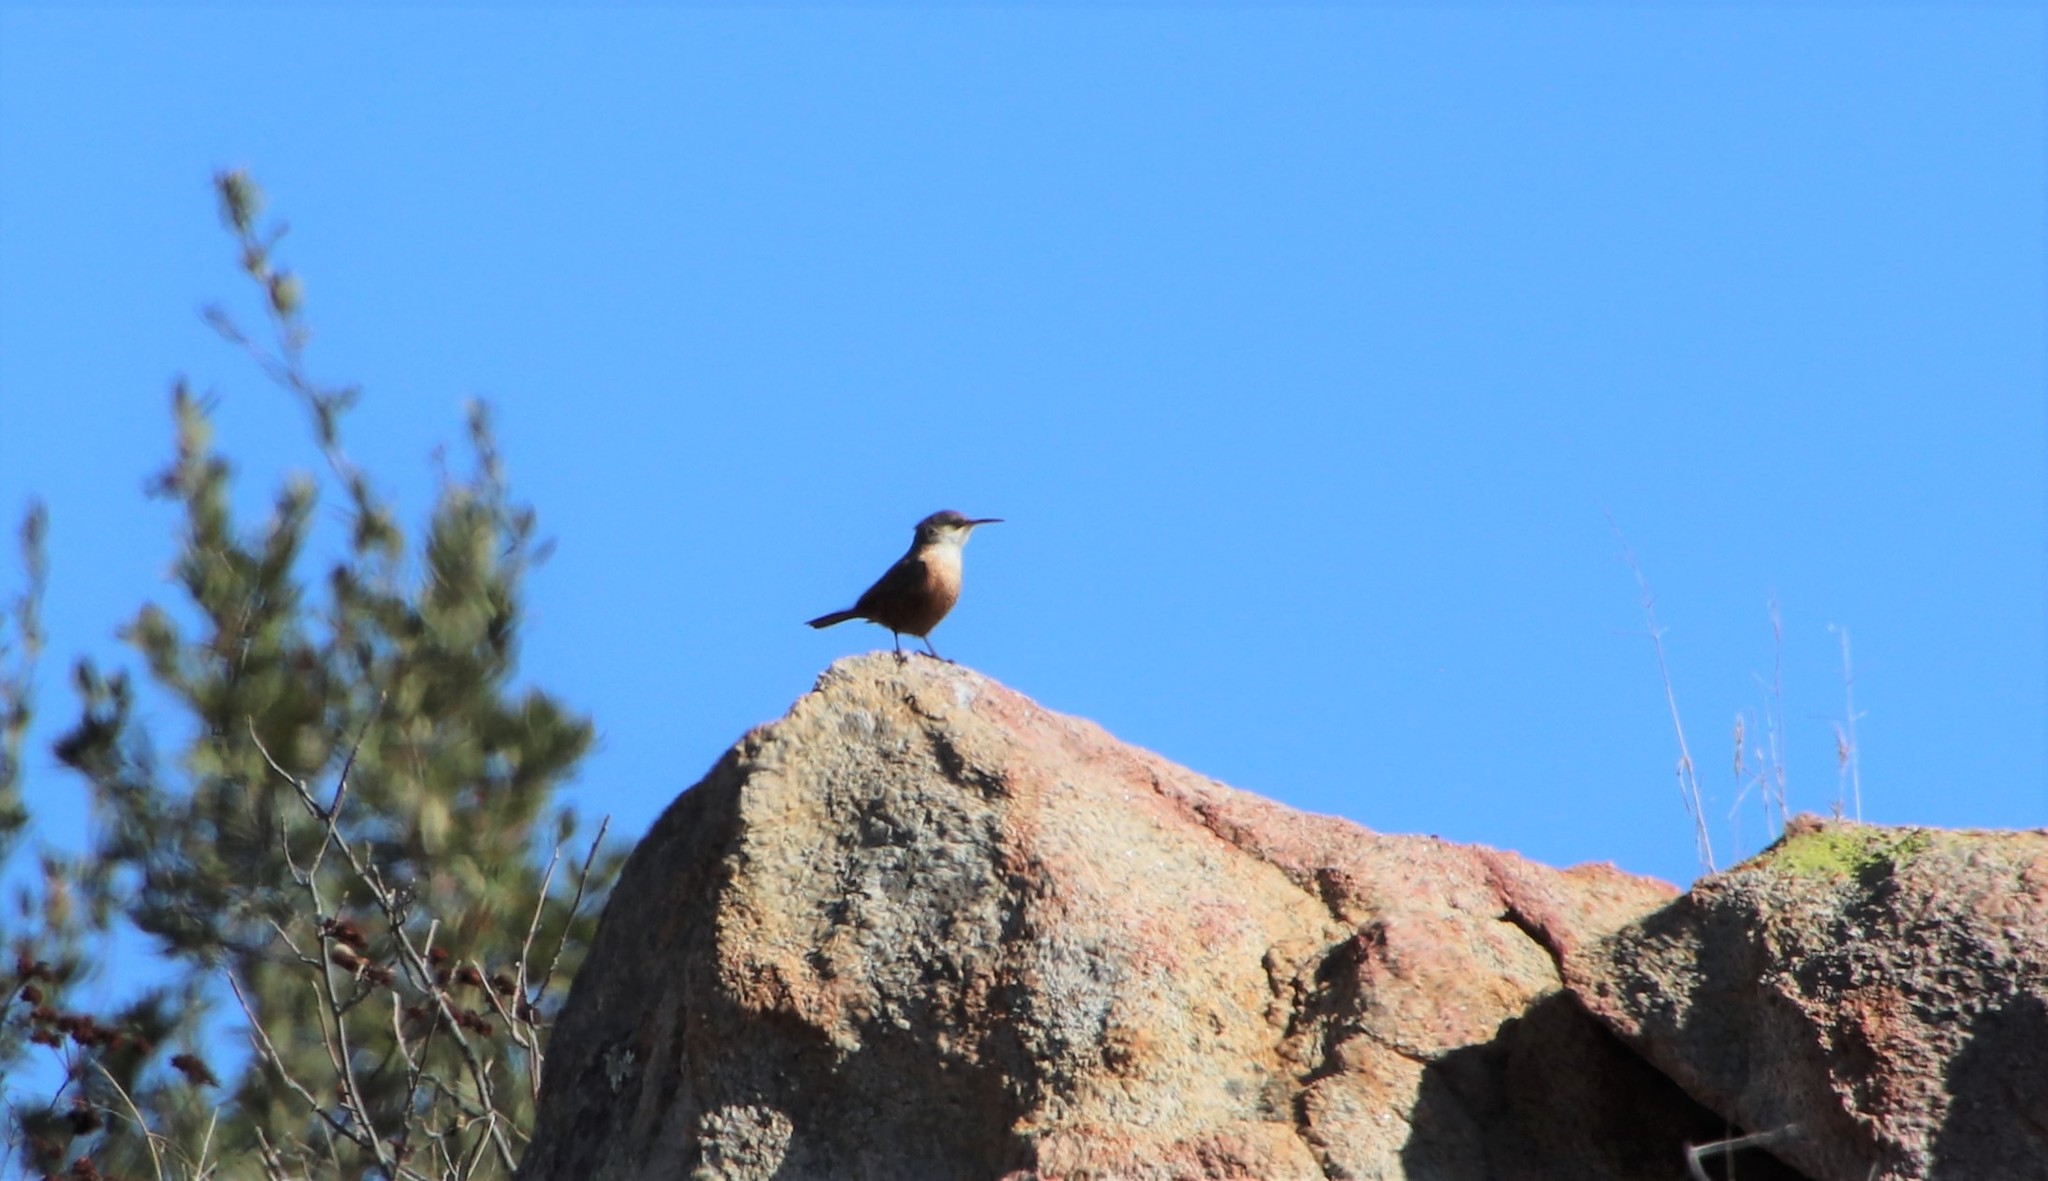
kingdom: Animalia
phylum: Chordata
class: Aves
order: Passeriformes
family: Troglodytidae
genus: Catherpes
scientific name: Catherpes mexicanus
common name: Canyon wren
